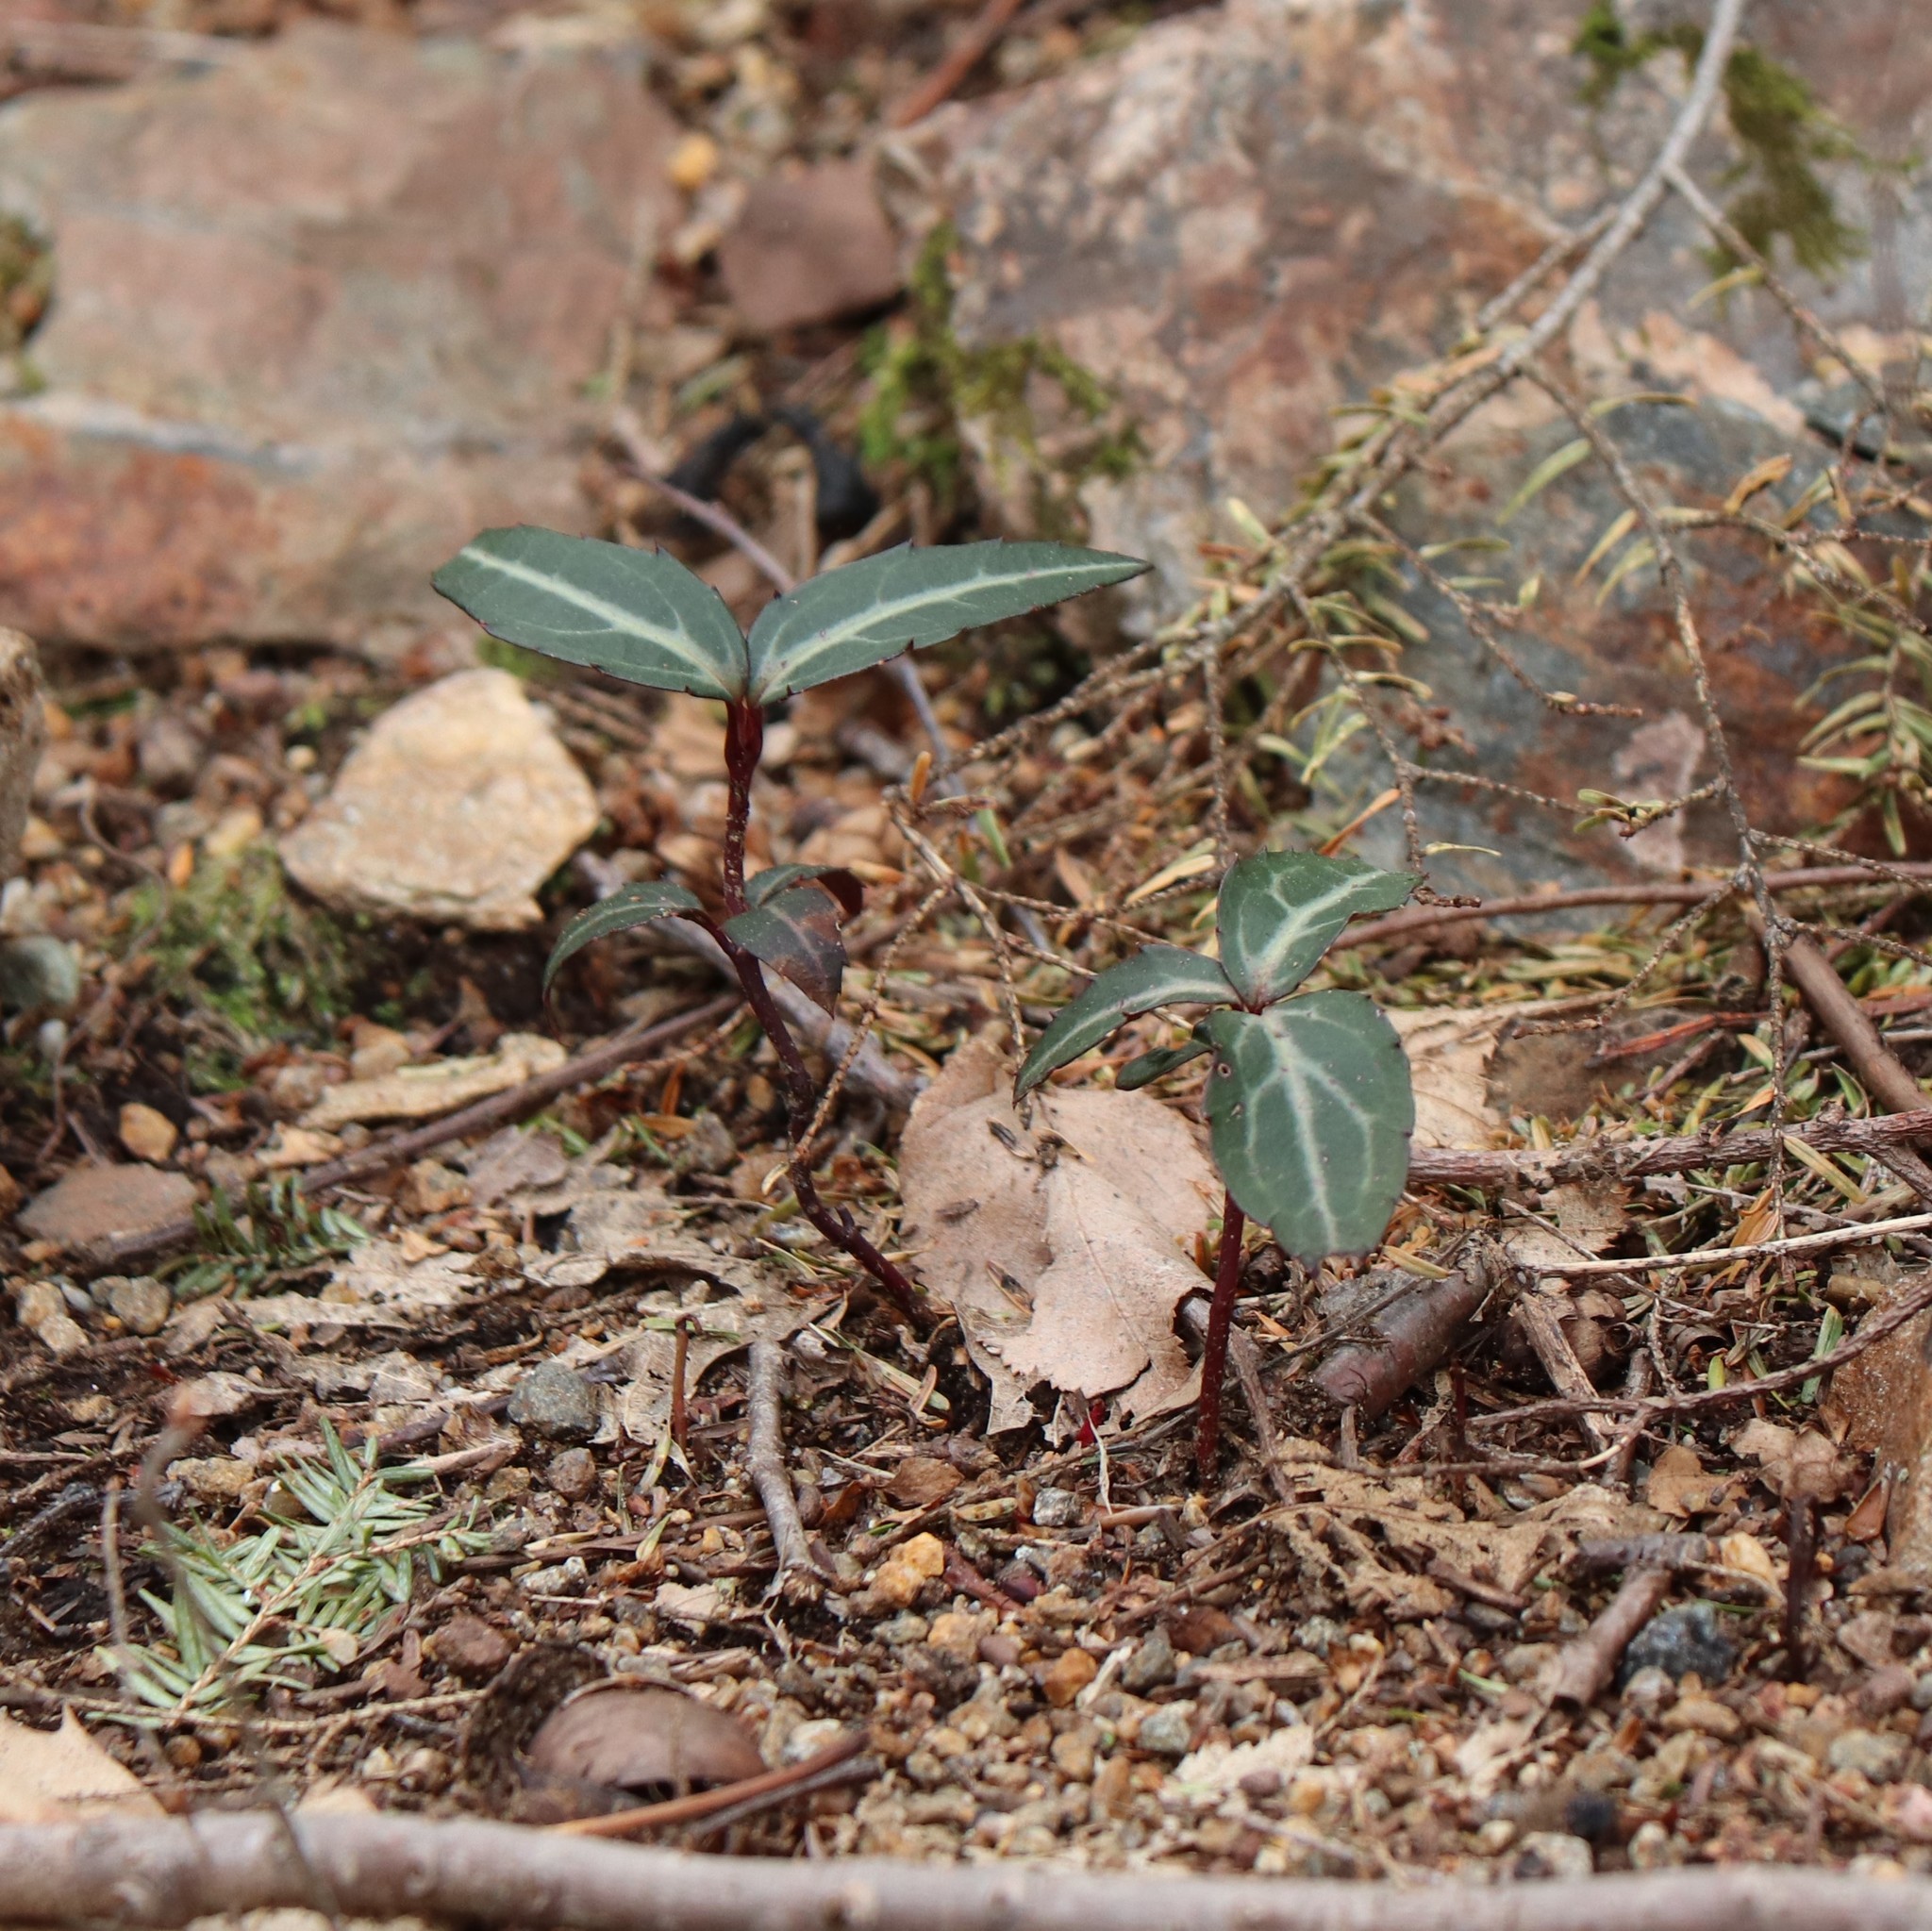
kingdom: Plantae
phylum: Tracheophyta
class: Magnoliopsida
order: Ericales
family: Ericaceae
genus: Chimaphila
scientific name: Chimaphila maculata
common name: Spotted pipsissewa
